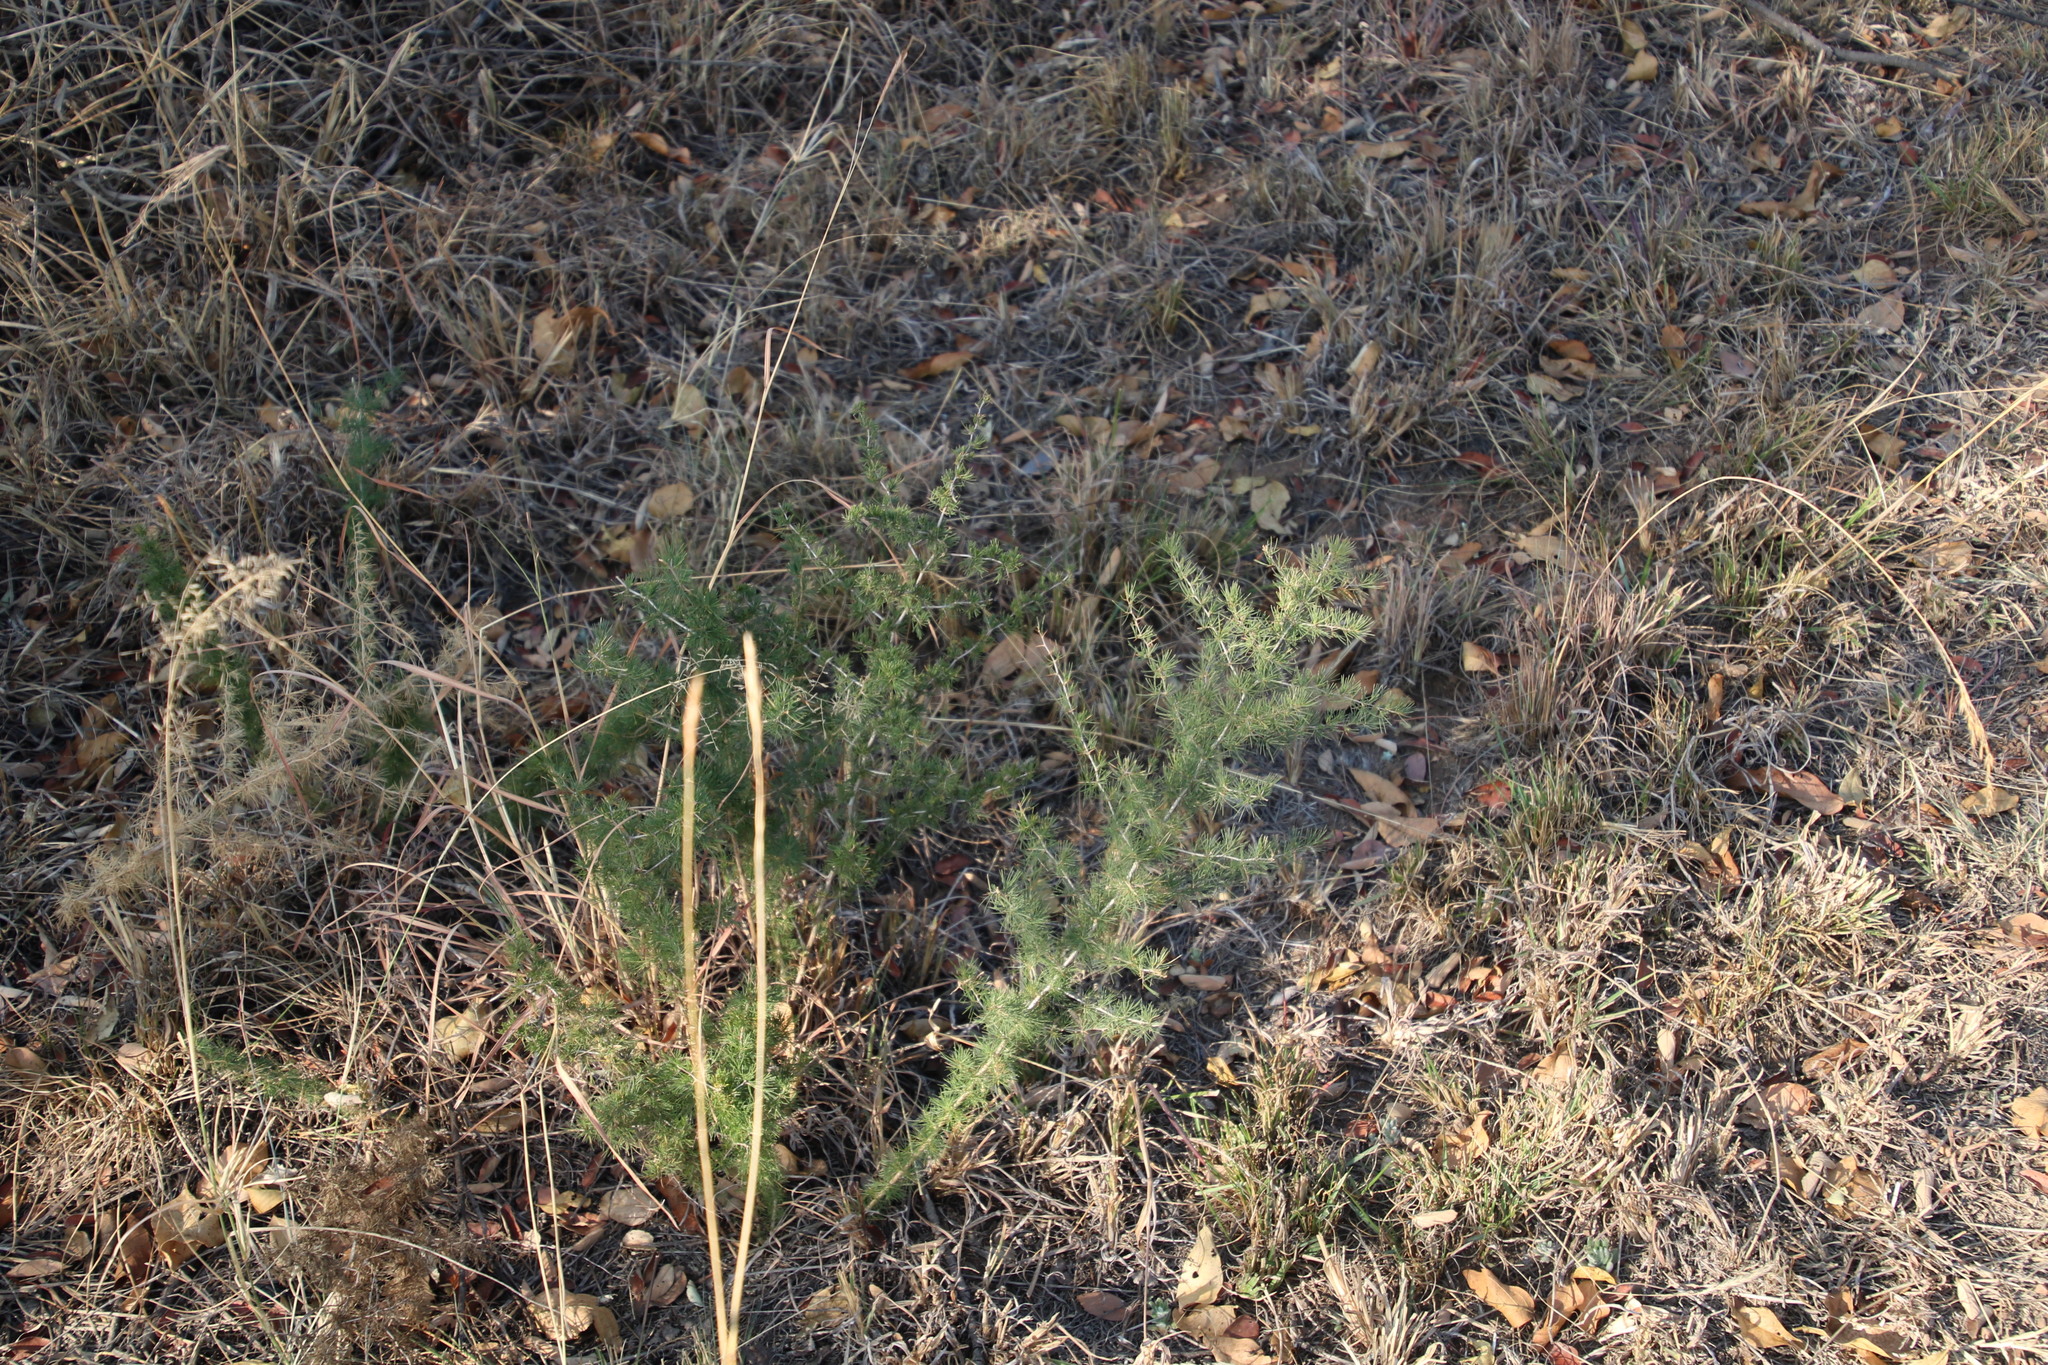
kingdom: Plantae
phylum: Tracheophyta
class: Liliopsida
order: Asparagales
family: Asparagaceae
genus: Asparagus
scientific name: Asparagus suaveolens
